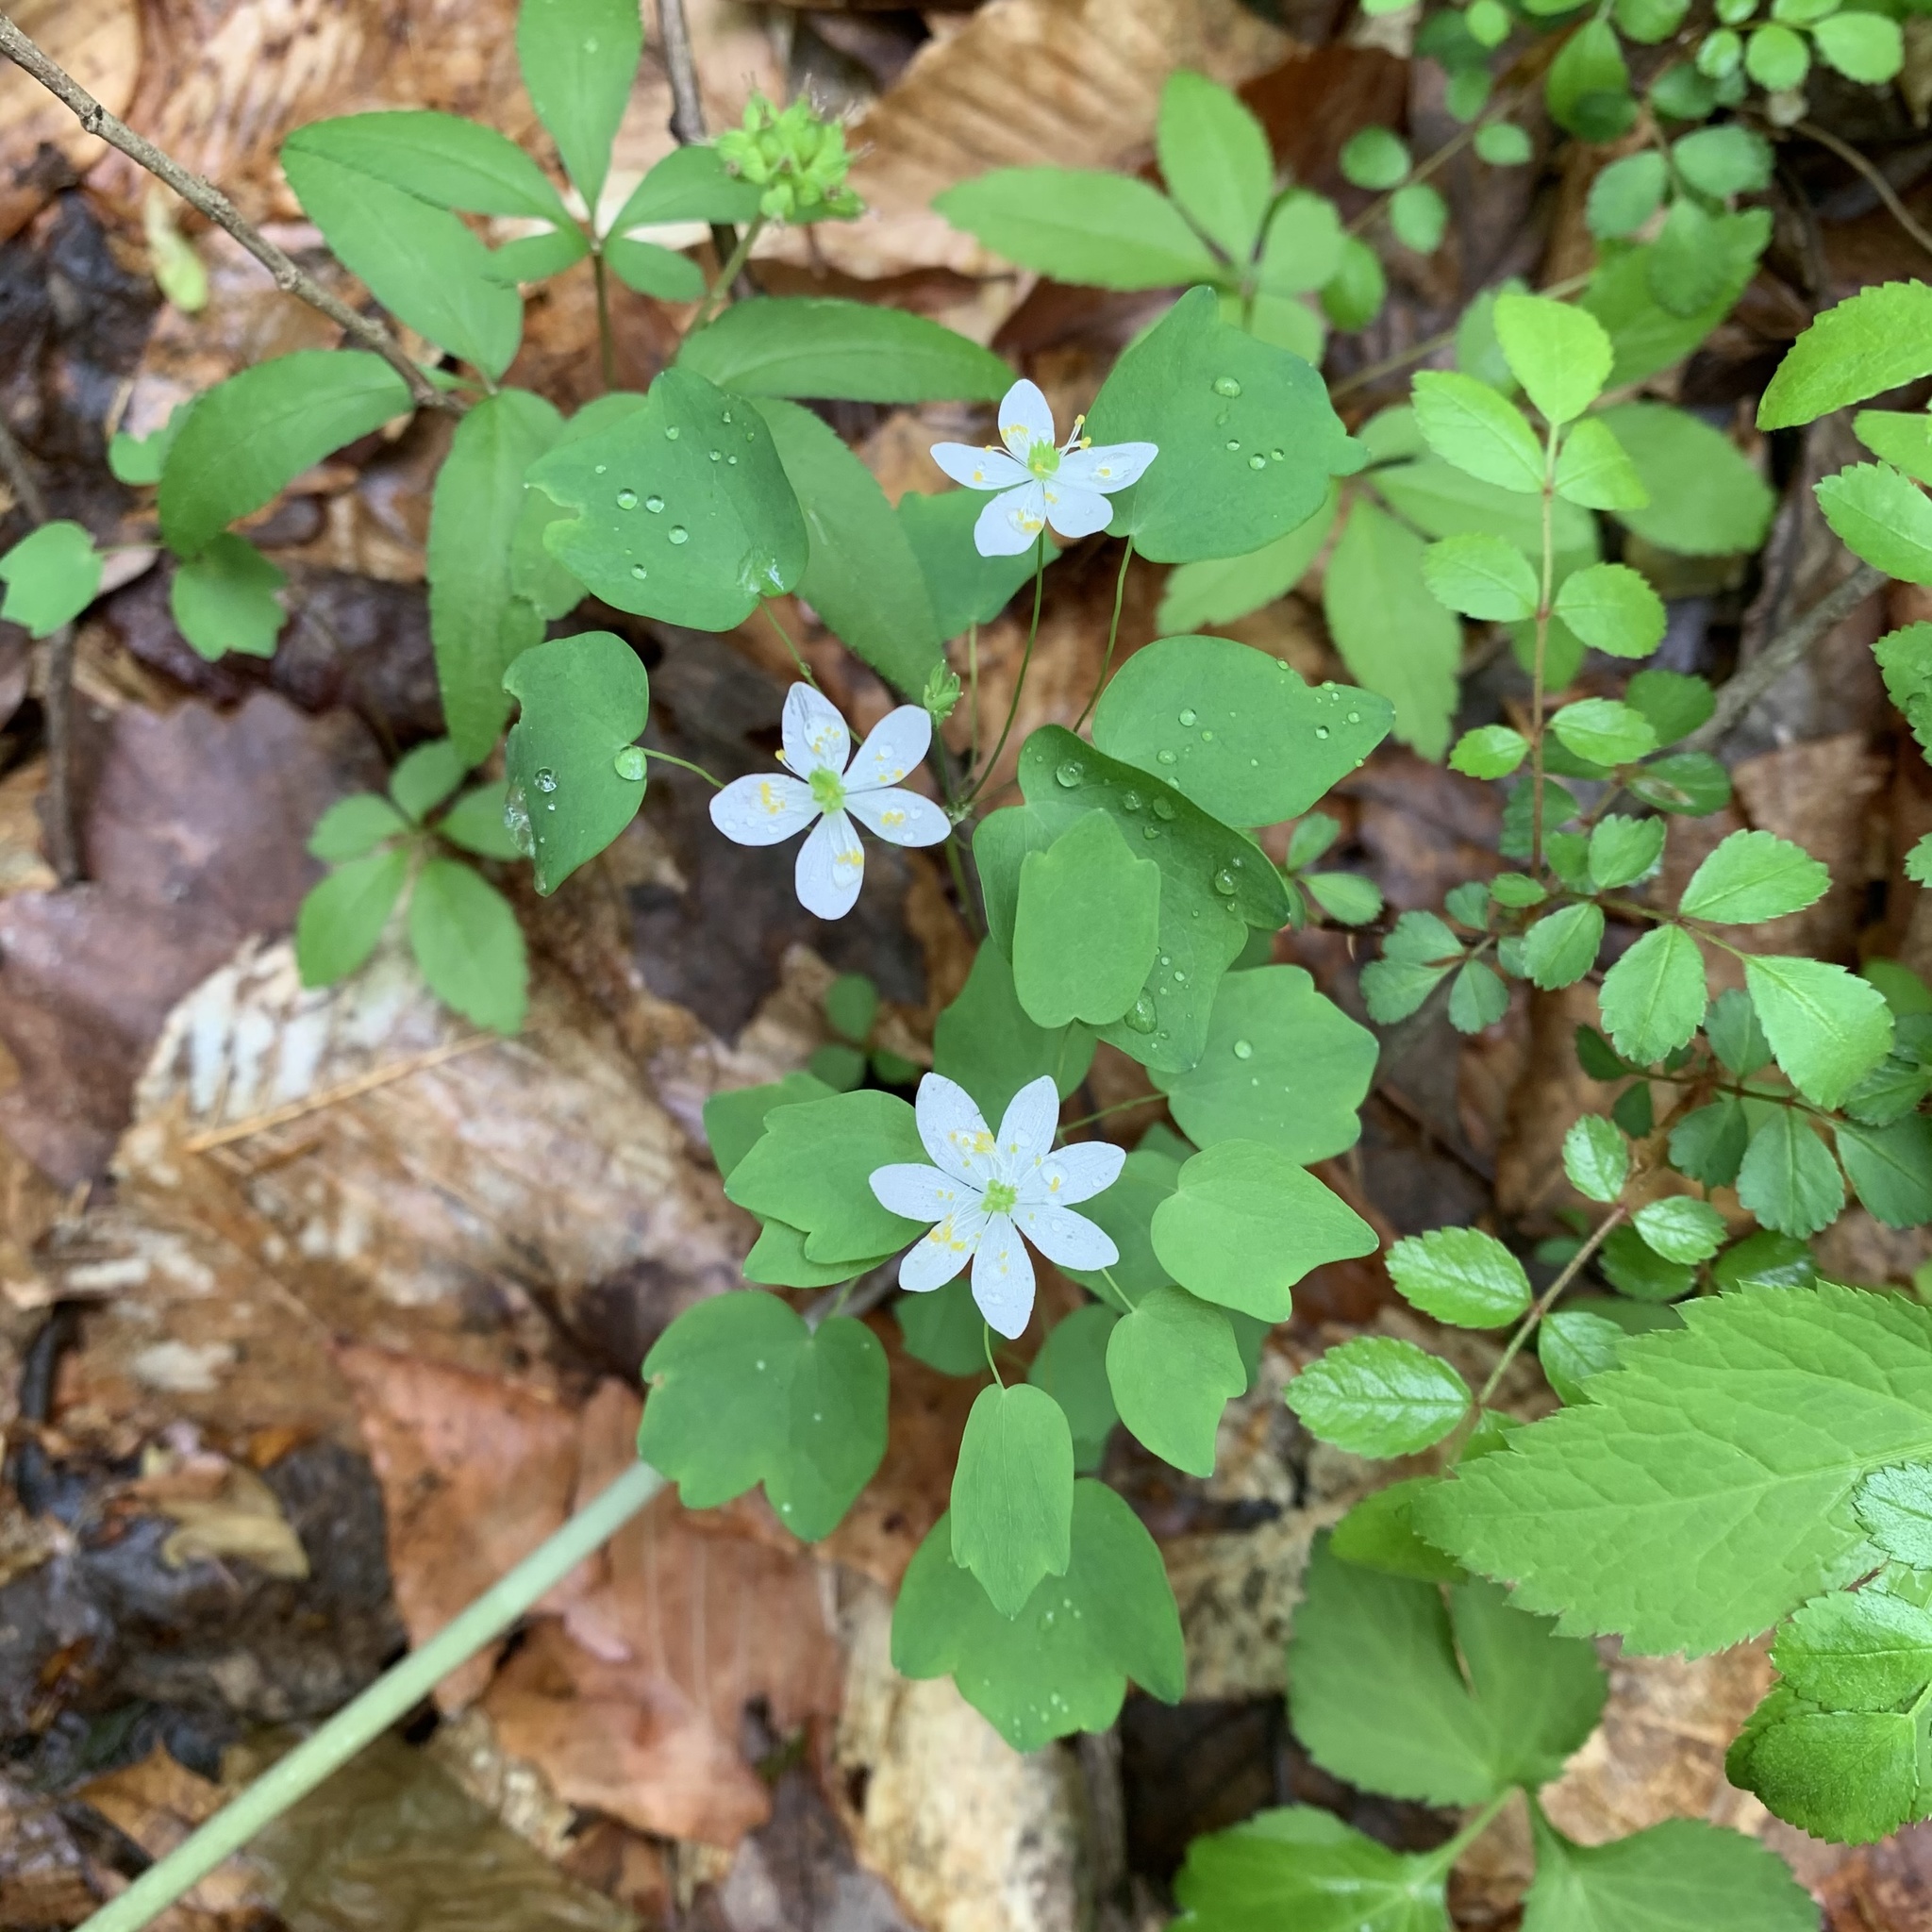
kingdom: Plantae
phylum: Tracheophyta
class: Magnoliopsida
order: Ranunculales
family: Ranunculaceae
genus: Thalictrum
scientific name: Thalictrum thalictroides
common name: Rue-anemone
